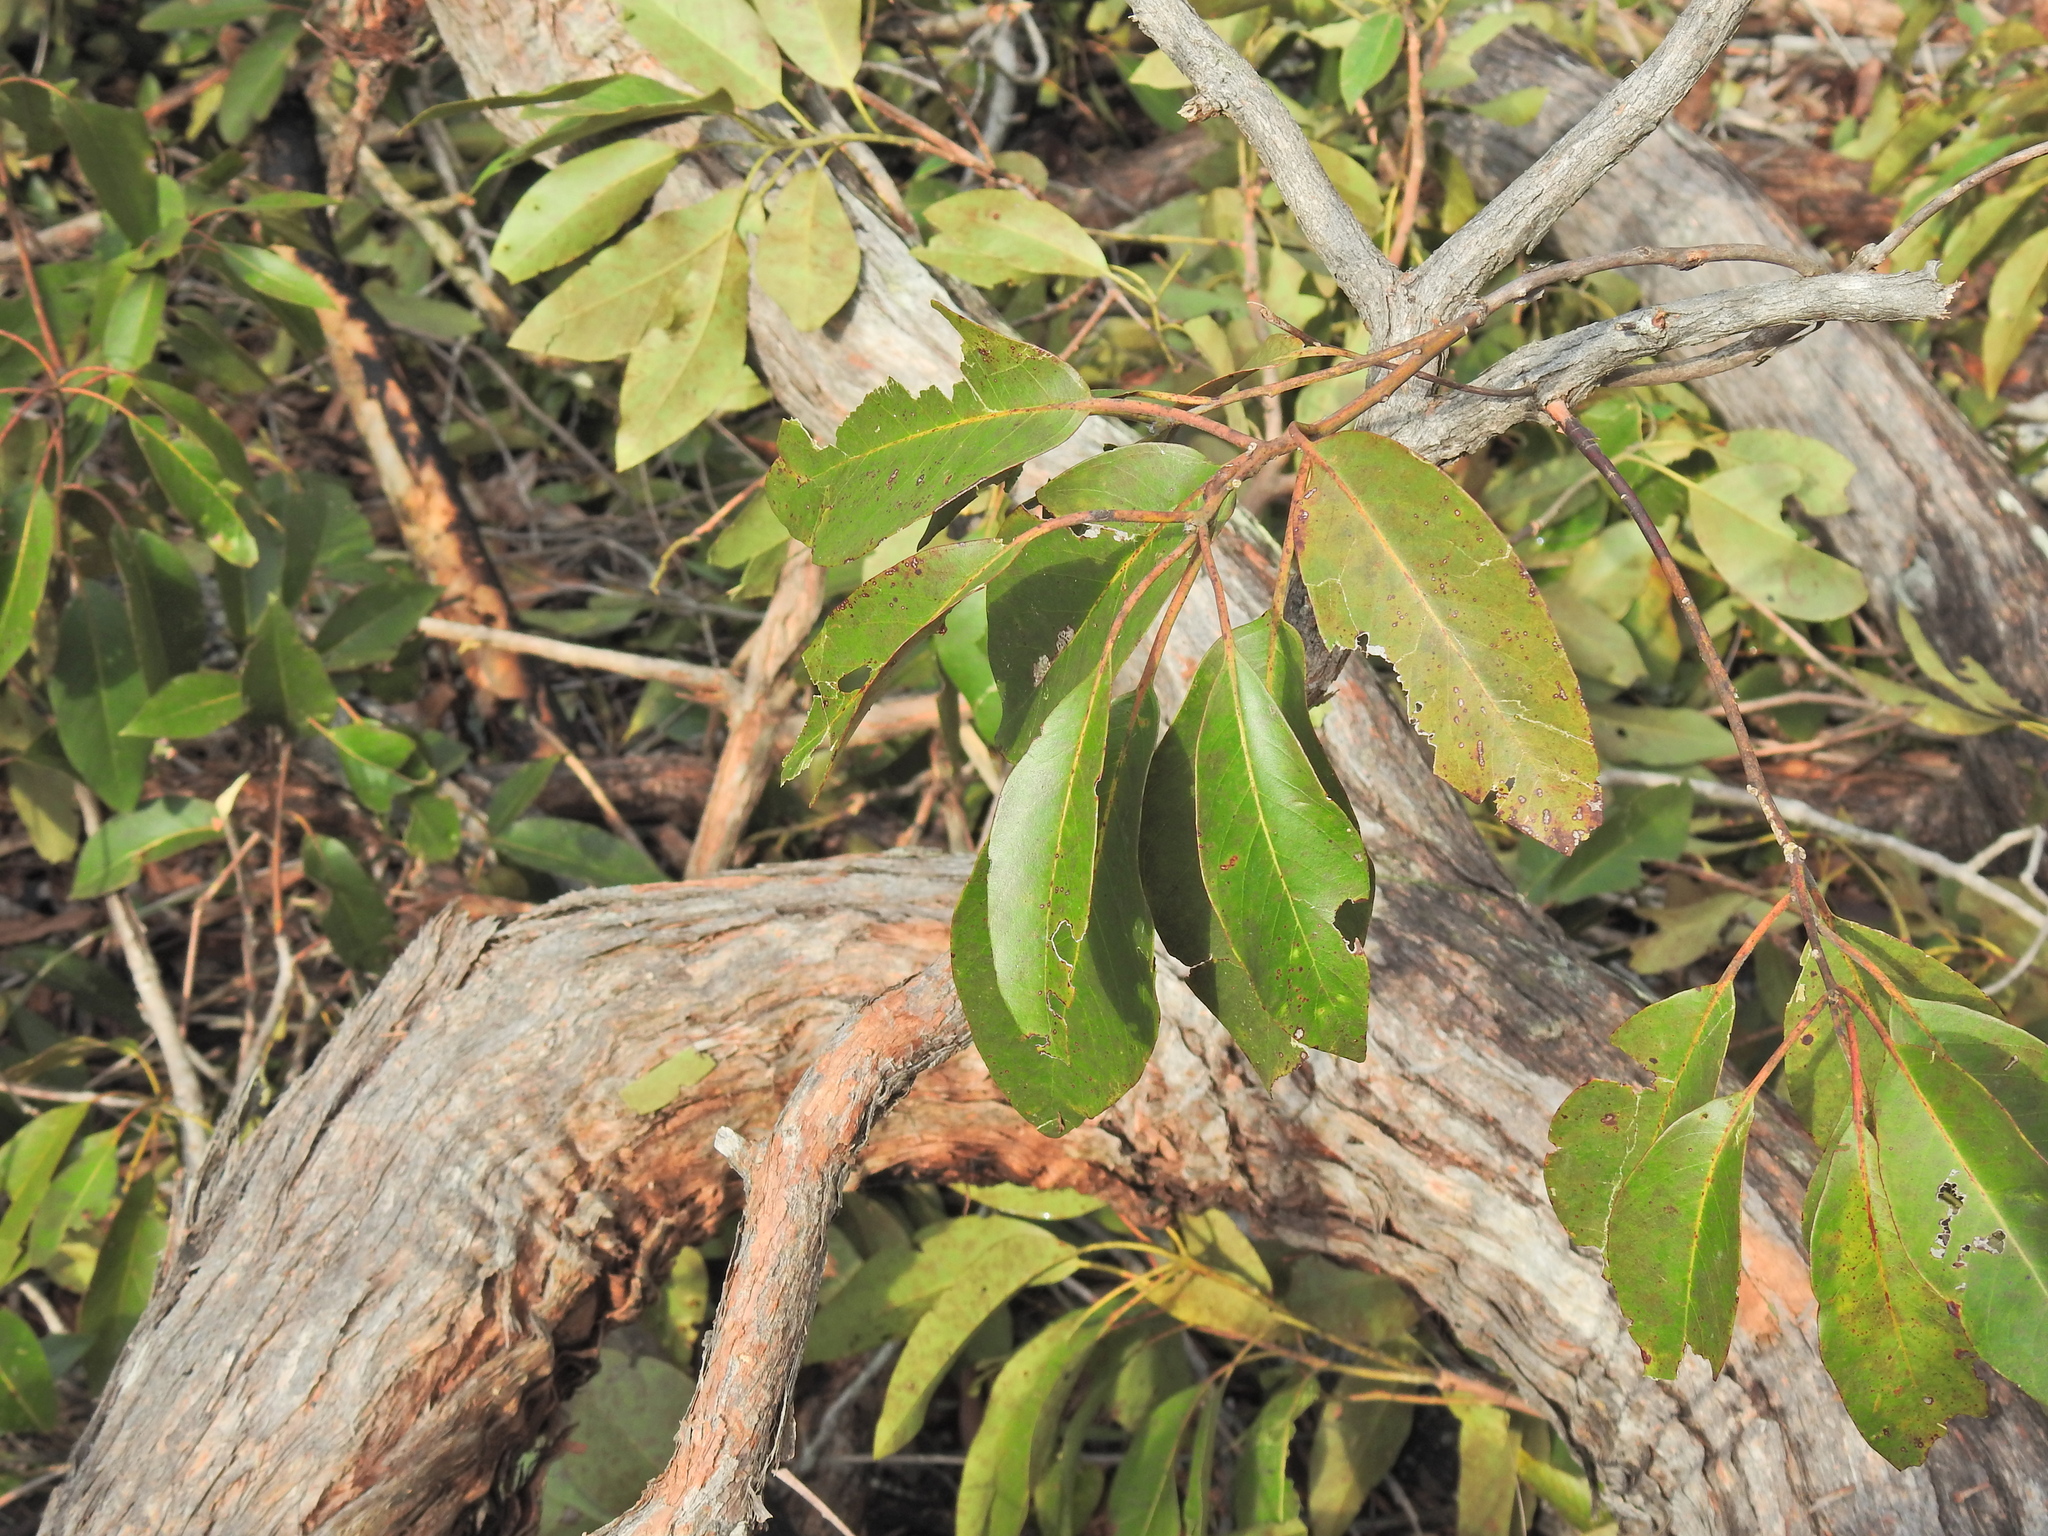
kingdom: Plantae
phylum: Tracheophyta
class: Magnoliopsida
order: Myrtales
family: Myrtaceae
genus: Lophostemon
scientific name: Lophostemon suaveolens
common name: Paperbark-mahogany
